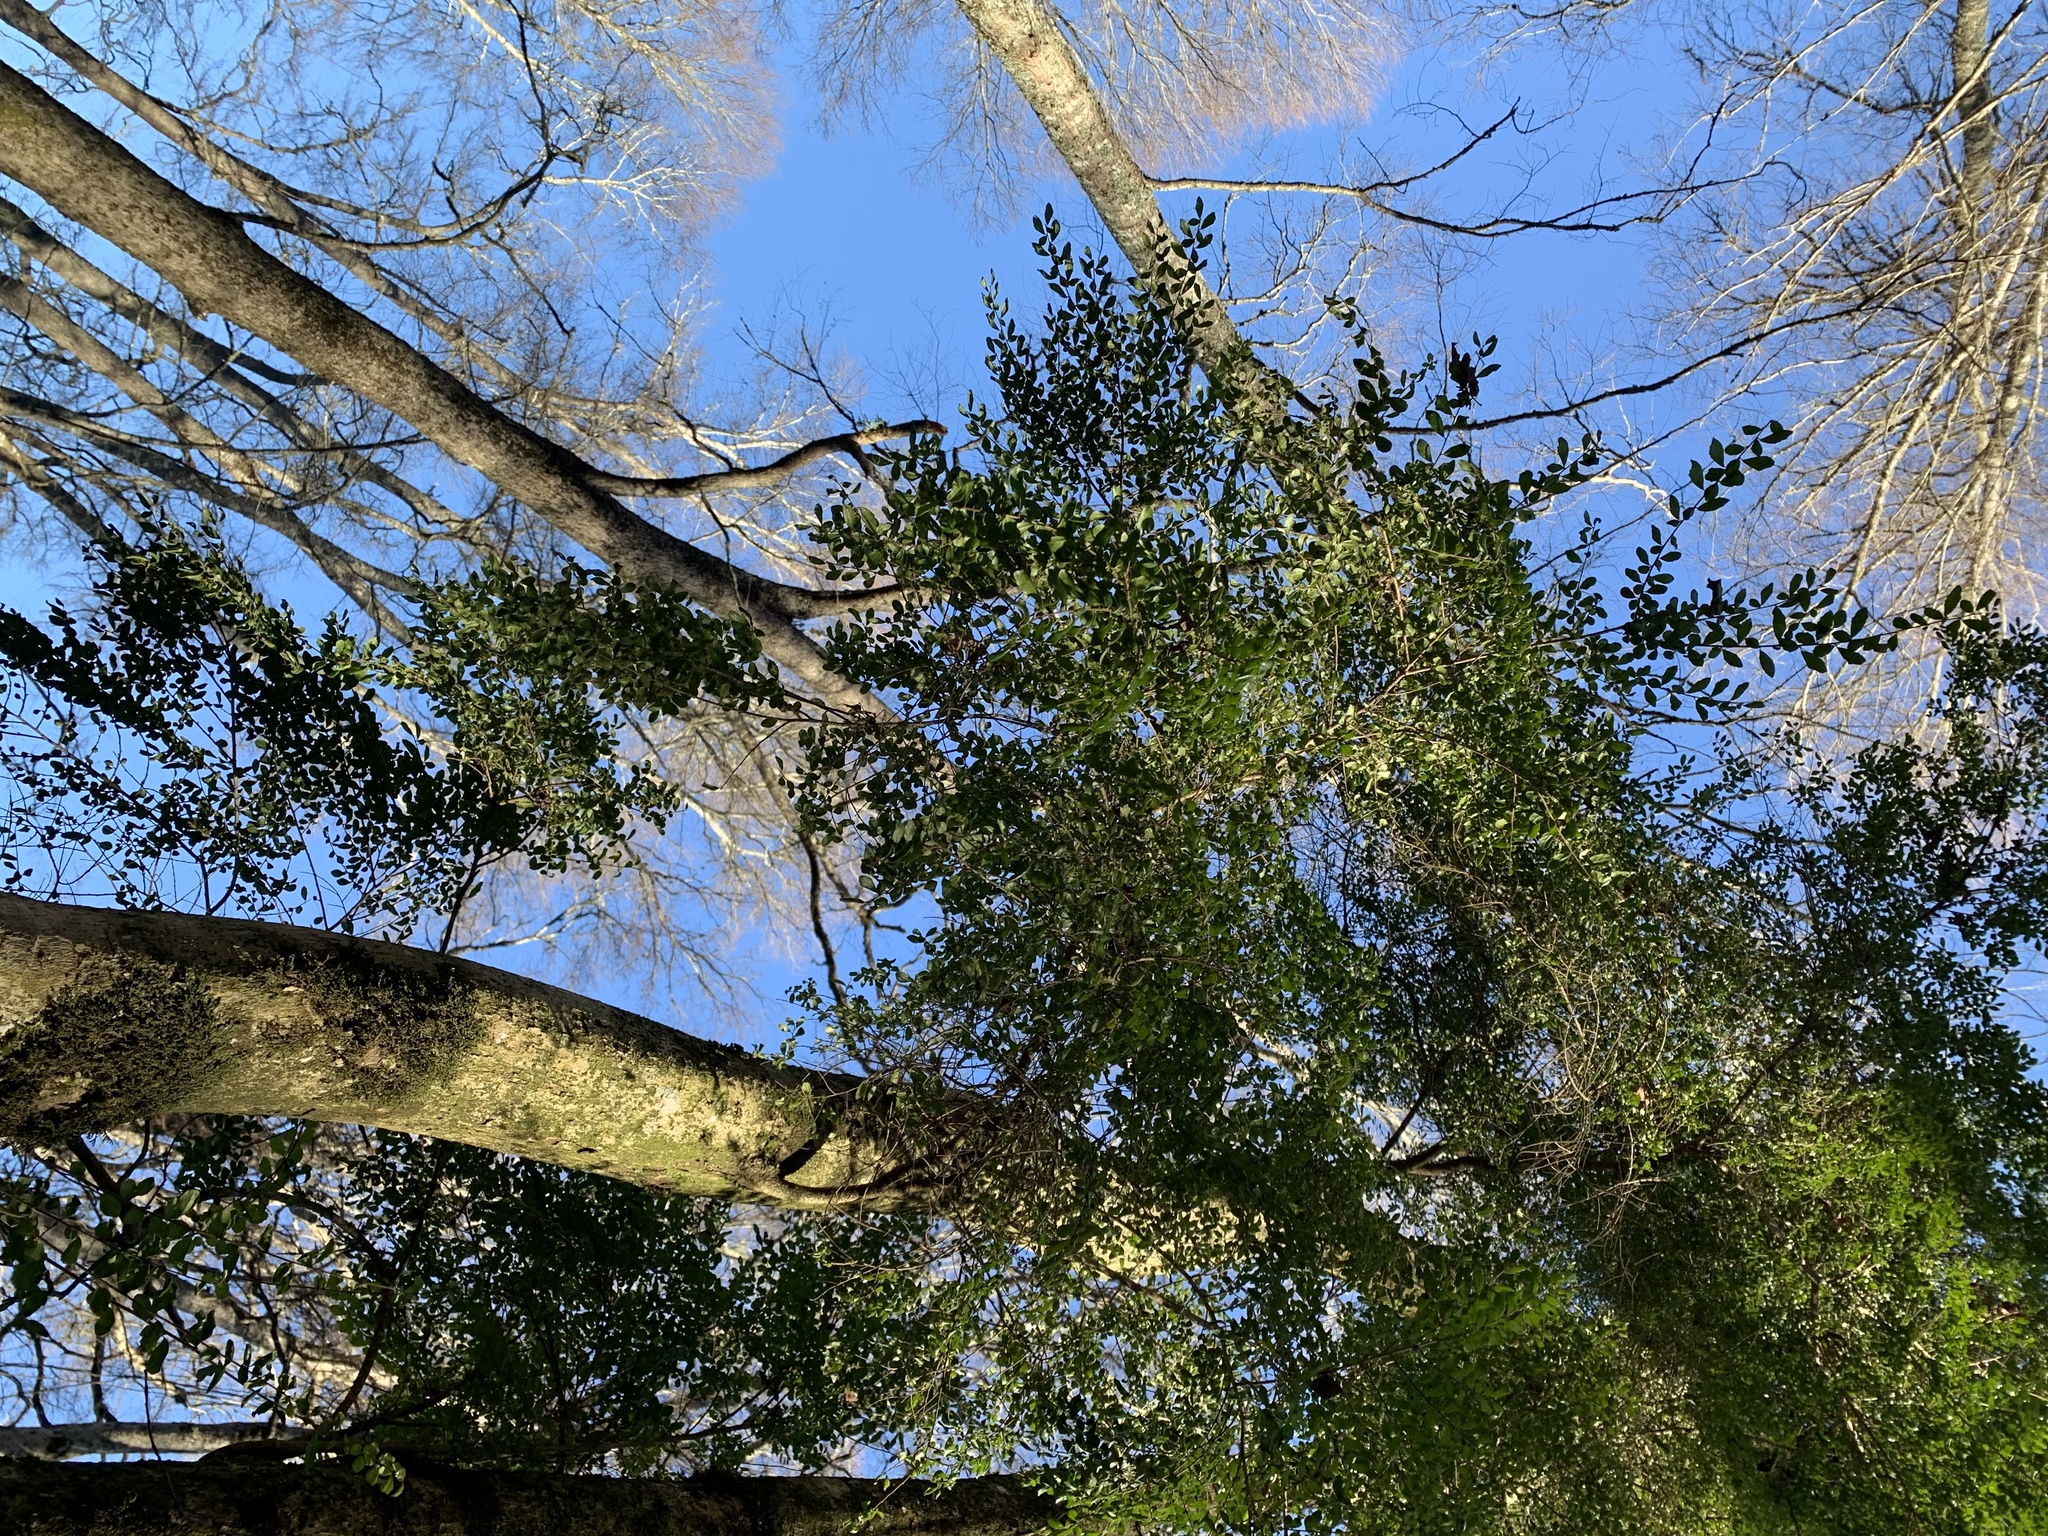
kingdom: Plantae
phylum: Tracheophyta
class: Magnoliopsida
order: Malpighiales
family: Salicaceae
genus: Azara
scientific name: Azara microphylla
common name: Box-leaf azara
